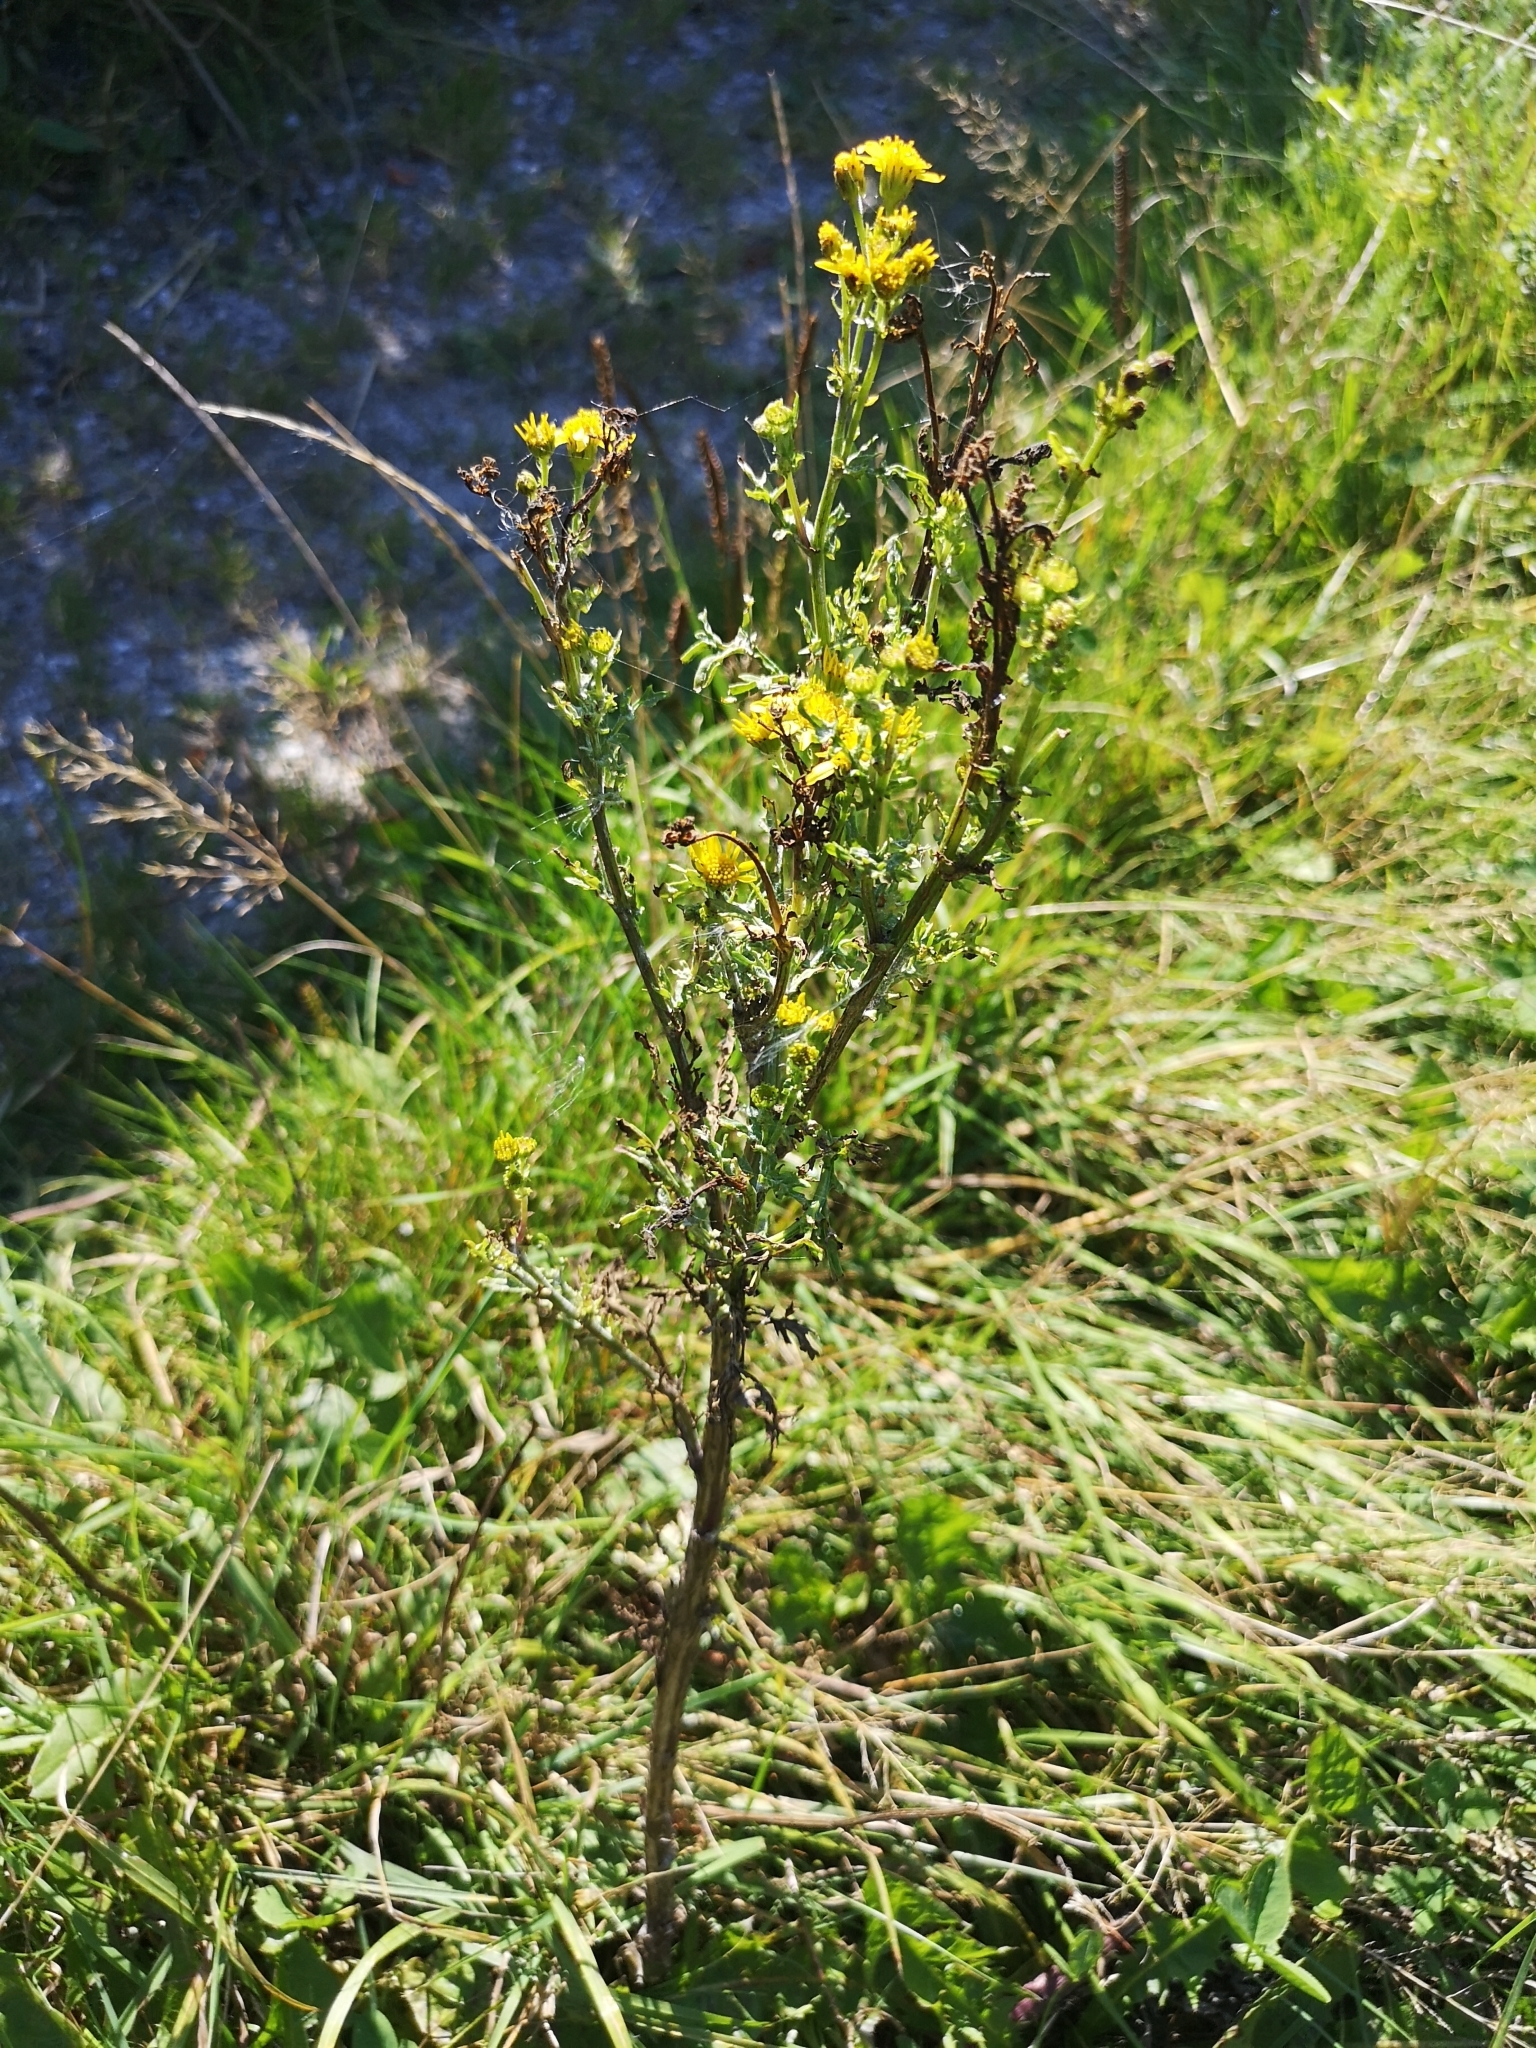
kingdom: Plantae
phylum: Tracheophyta
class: Magnoliopsida
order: Asterales
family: Asteraceae
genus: Jacobaea
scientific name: Jacobaea vulgaris
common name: Stinking willie
